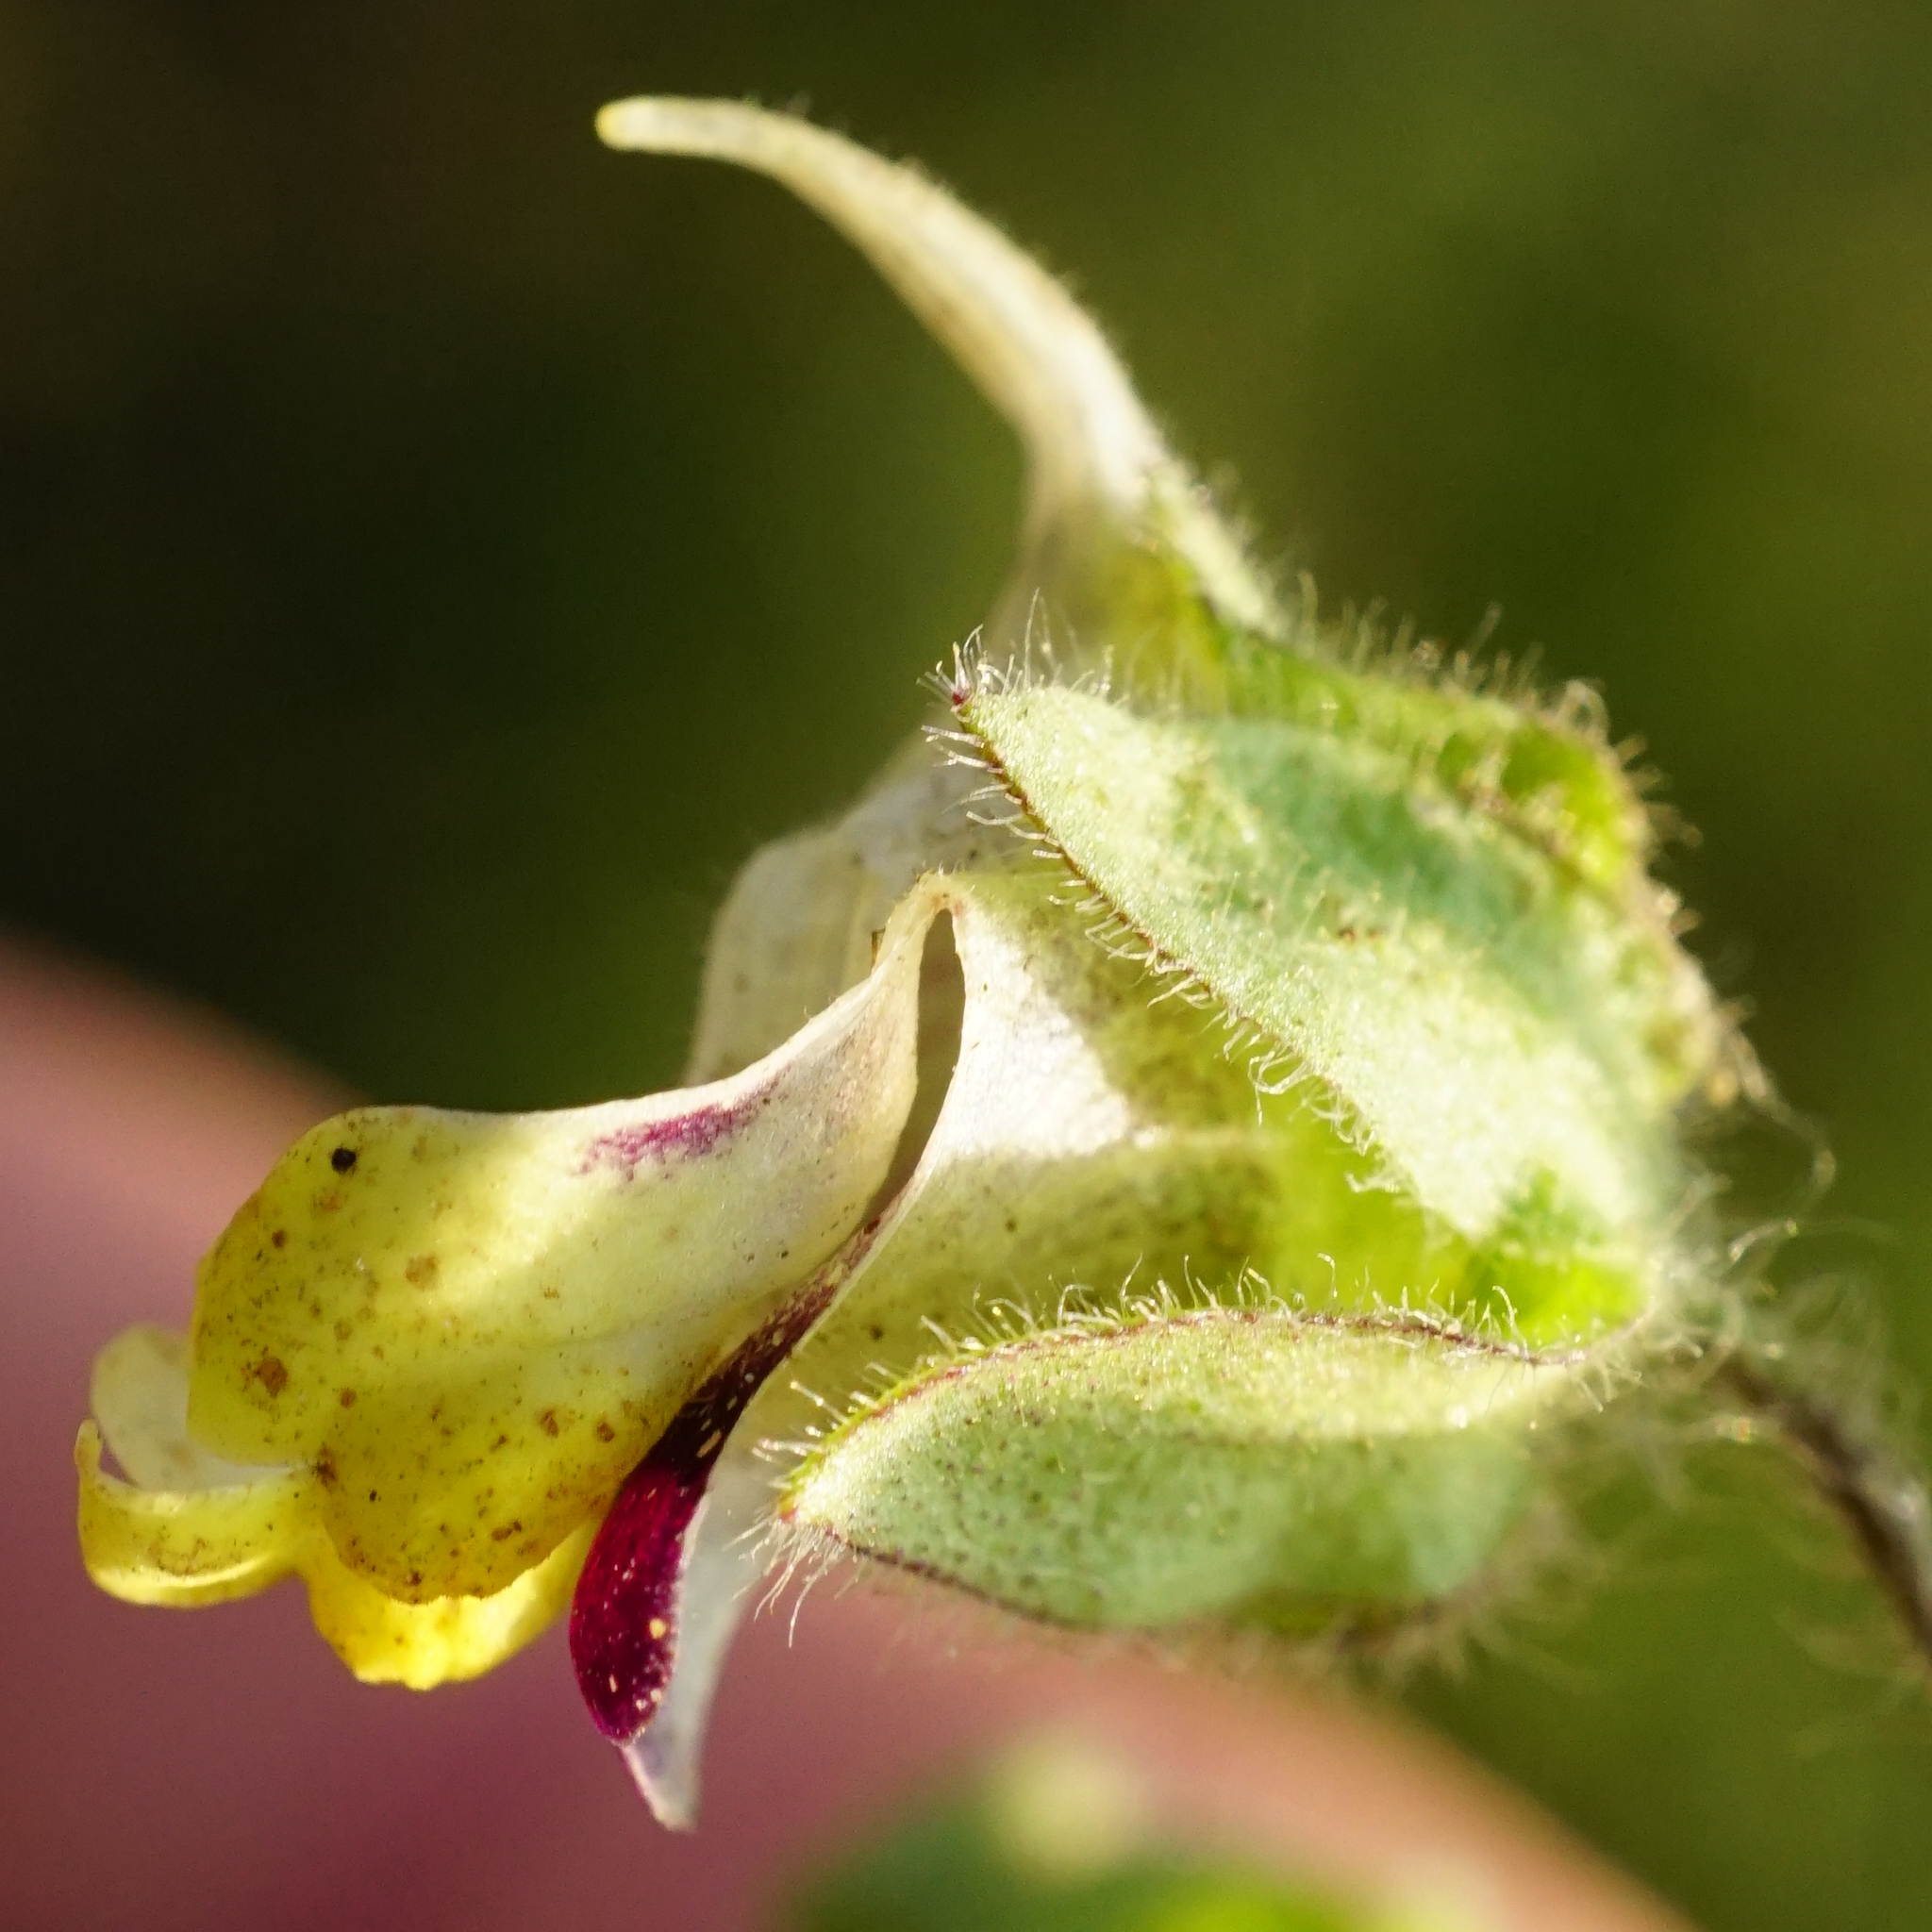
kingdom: Plantae
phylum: Tracheophyta
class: Magnoliopsida
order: Lamiales
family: Plantaginaceae
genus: Kickxia
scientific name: Kickxia spuria
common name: Round-leaved fluellen
